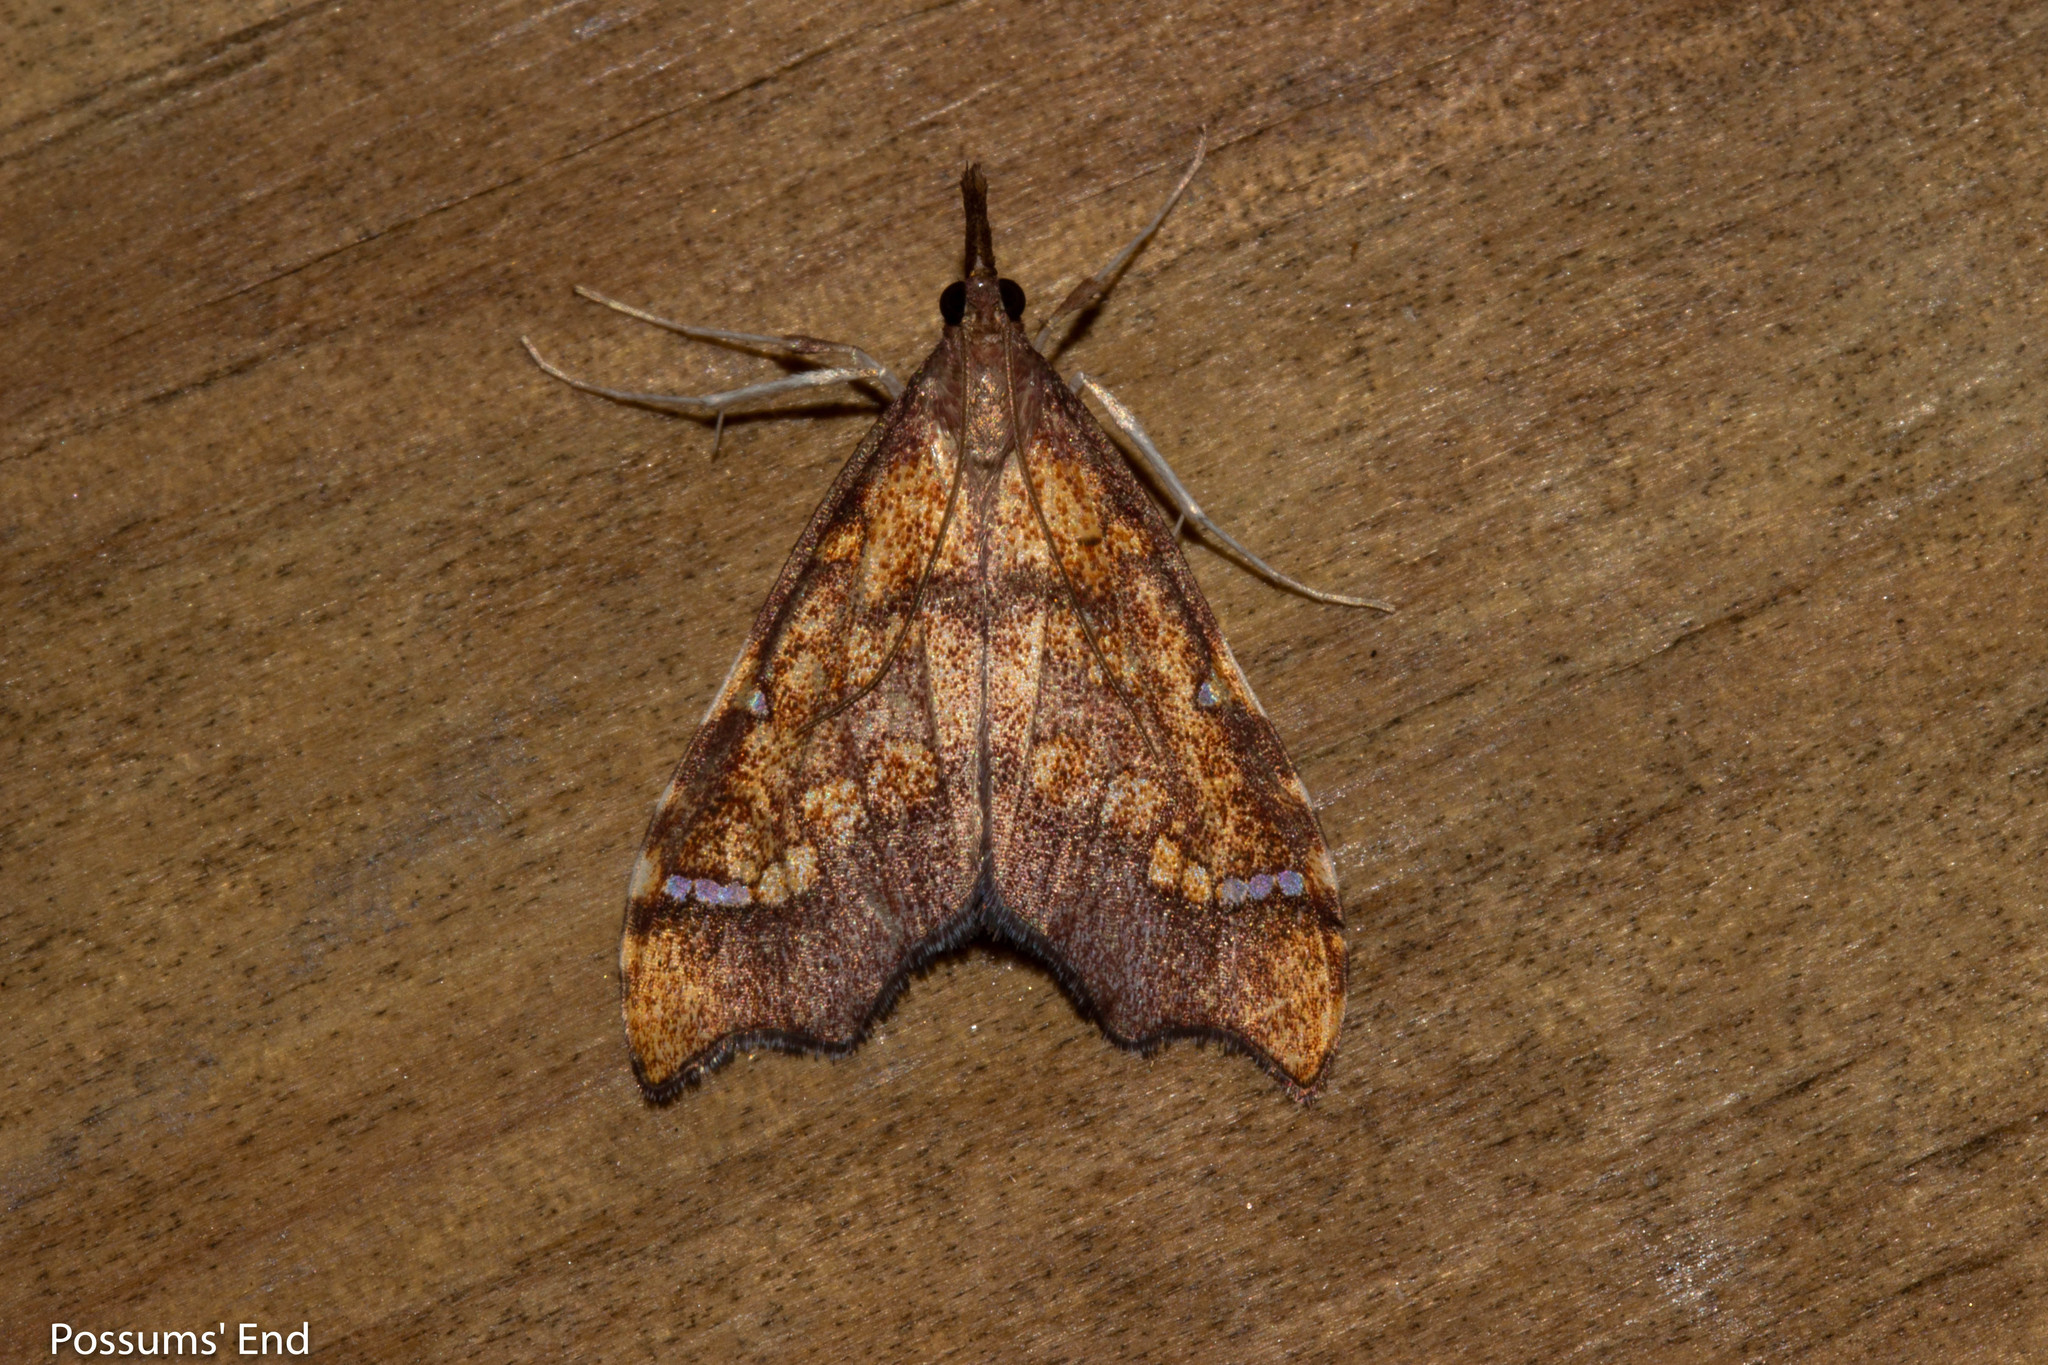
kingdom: Animalia
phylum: Arthropoda
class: Insecta
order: Lepidoptera
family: Crambidae
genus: Deana
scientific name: Deana hybreasalis
